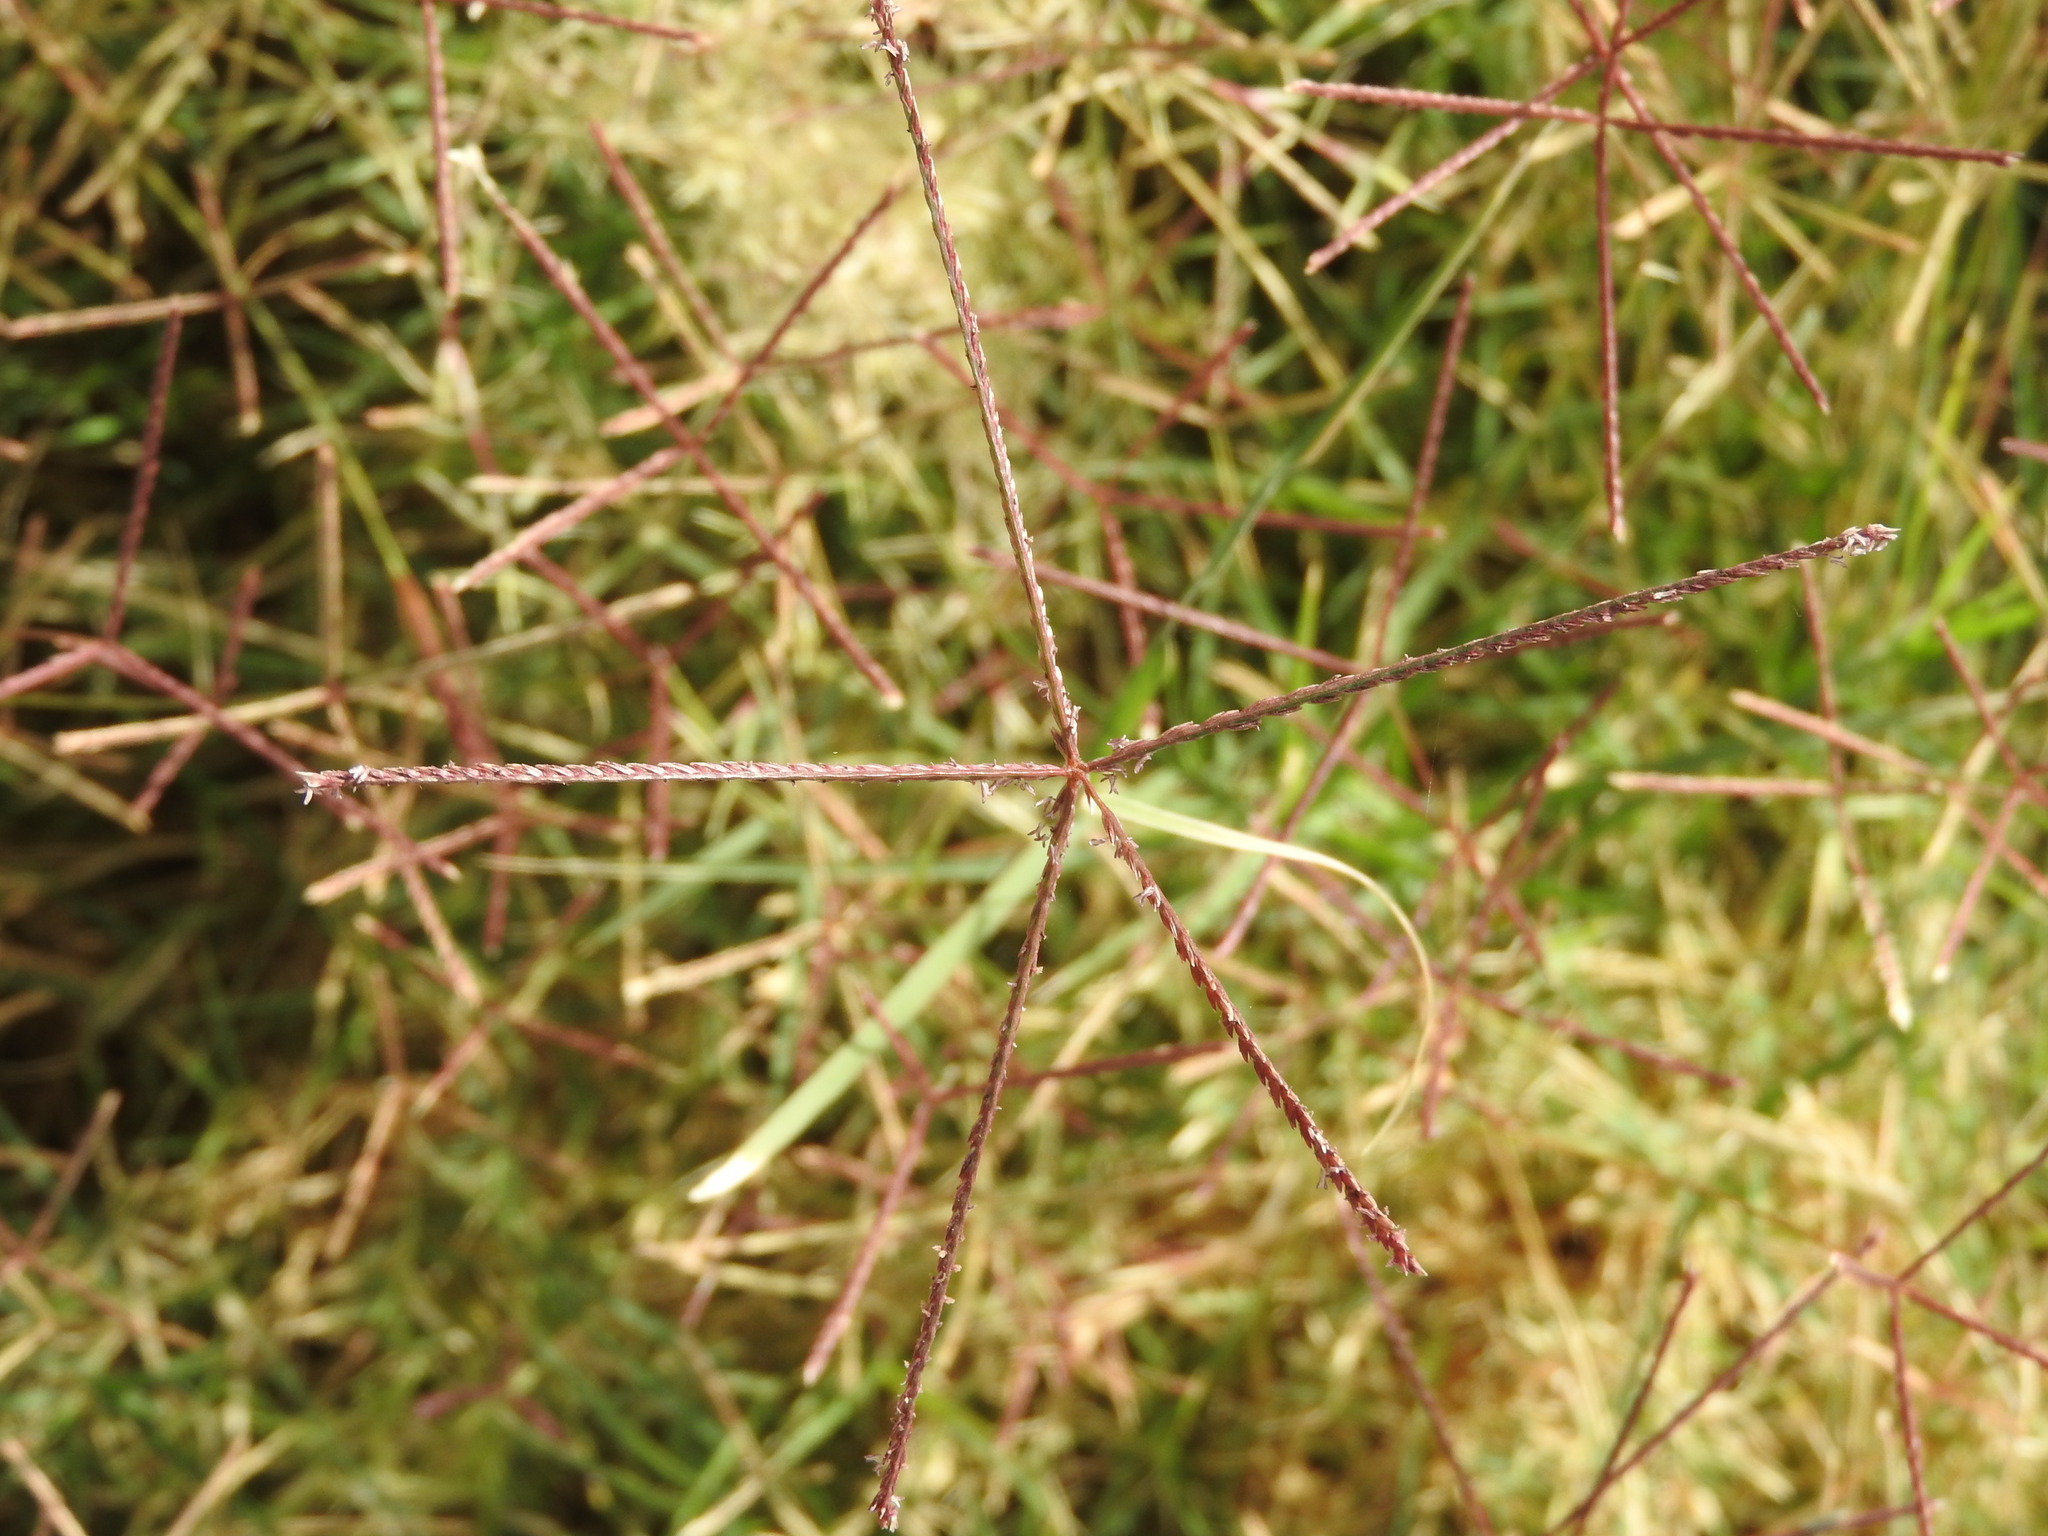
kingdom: Plantae
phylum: Tracheophyta
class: Liliopsida
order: Poales
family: Poaceae
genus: Cynodon
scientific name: Cynodon dactylon
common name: Bermuda grass
